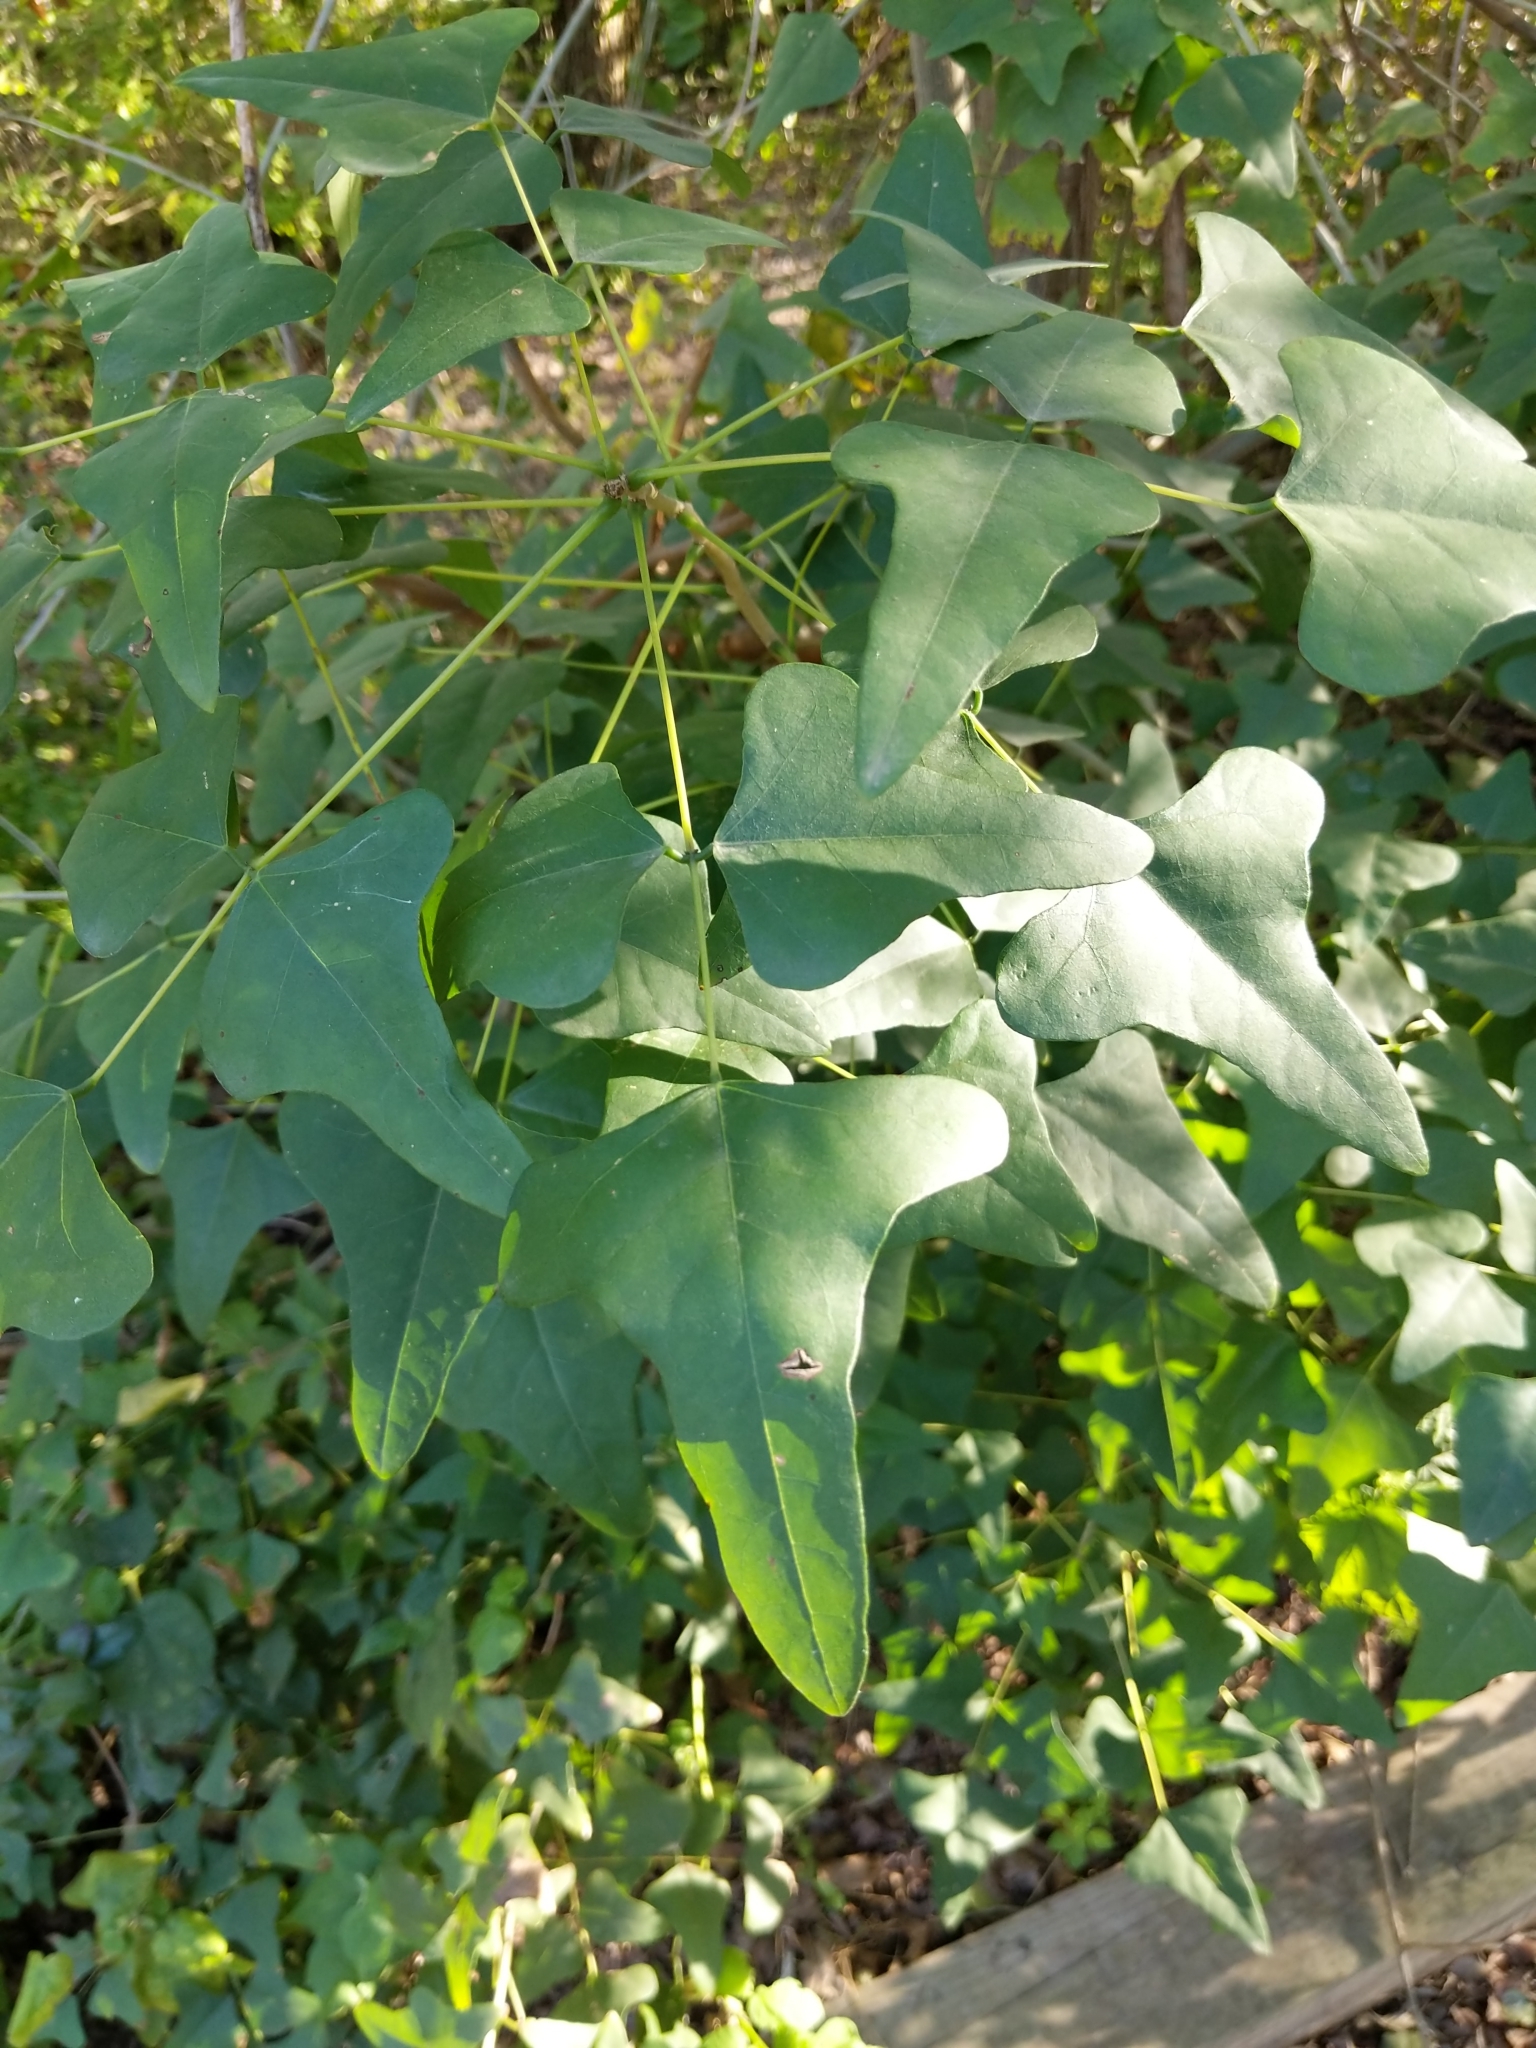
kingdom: Plantae
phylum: Tracheophyta
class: Magnoliopsida
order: Fabales
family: Fabaceae
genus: Erythrina
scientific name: Erythrina herbacea
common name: Coral-bean
